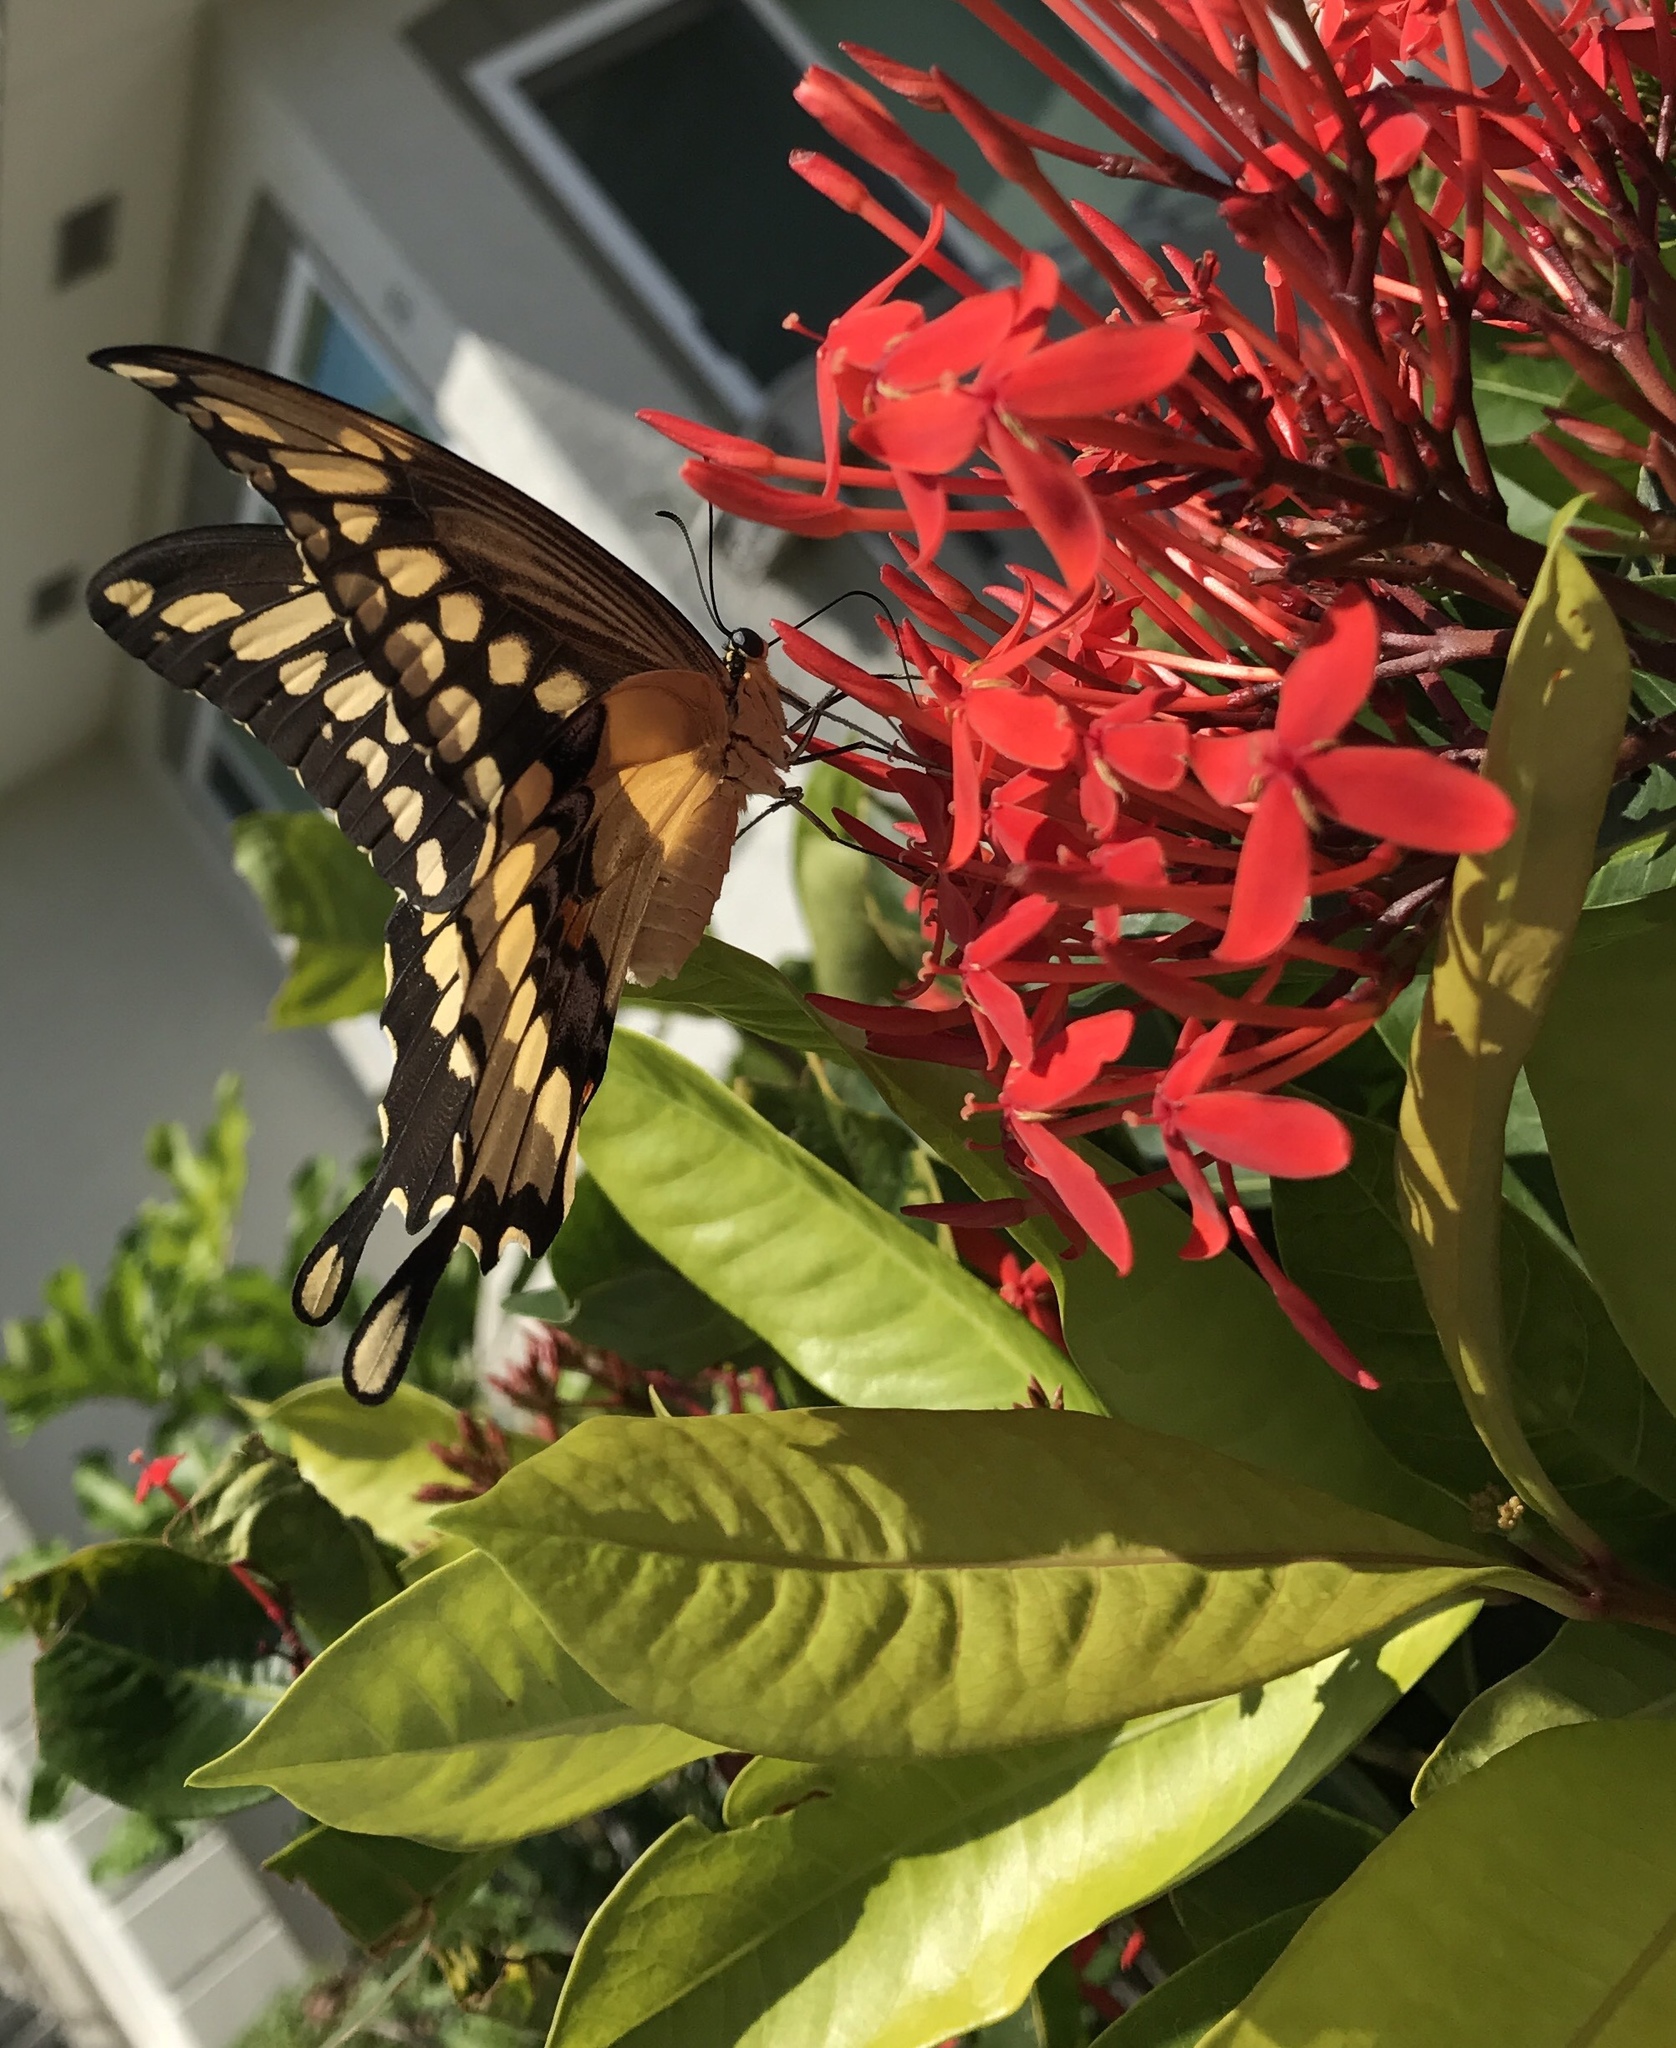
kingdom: Animalia
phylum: Arthropoda
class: Insecta
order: Lepidoptera
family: Papilionidae
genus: Papilio
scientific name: Papilio cresphontes
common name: Giant swallowtail
